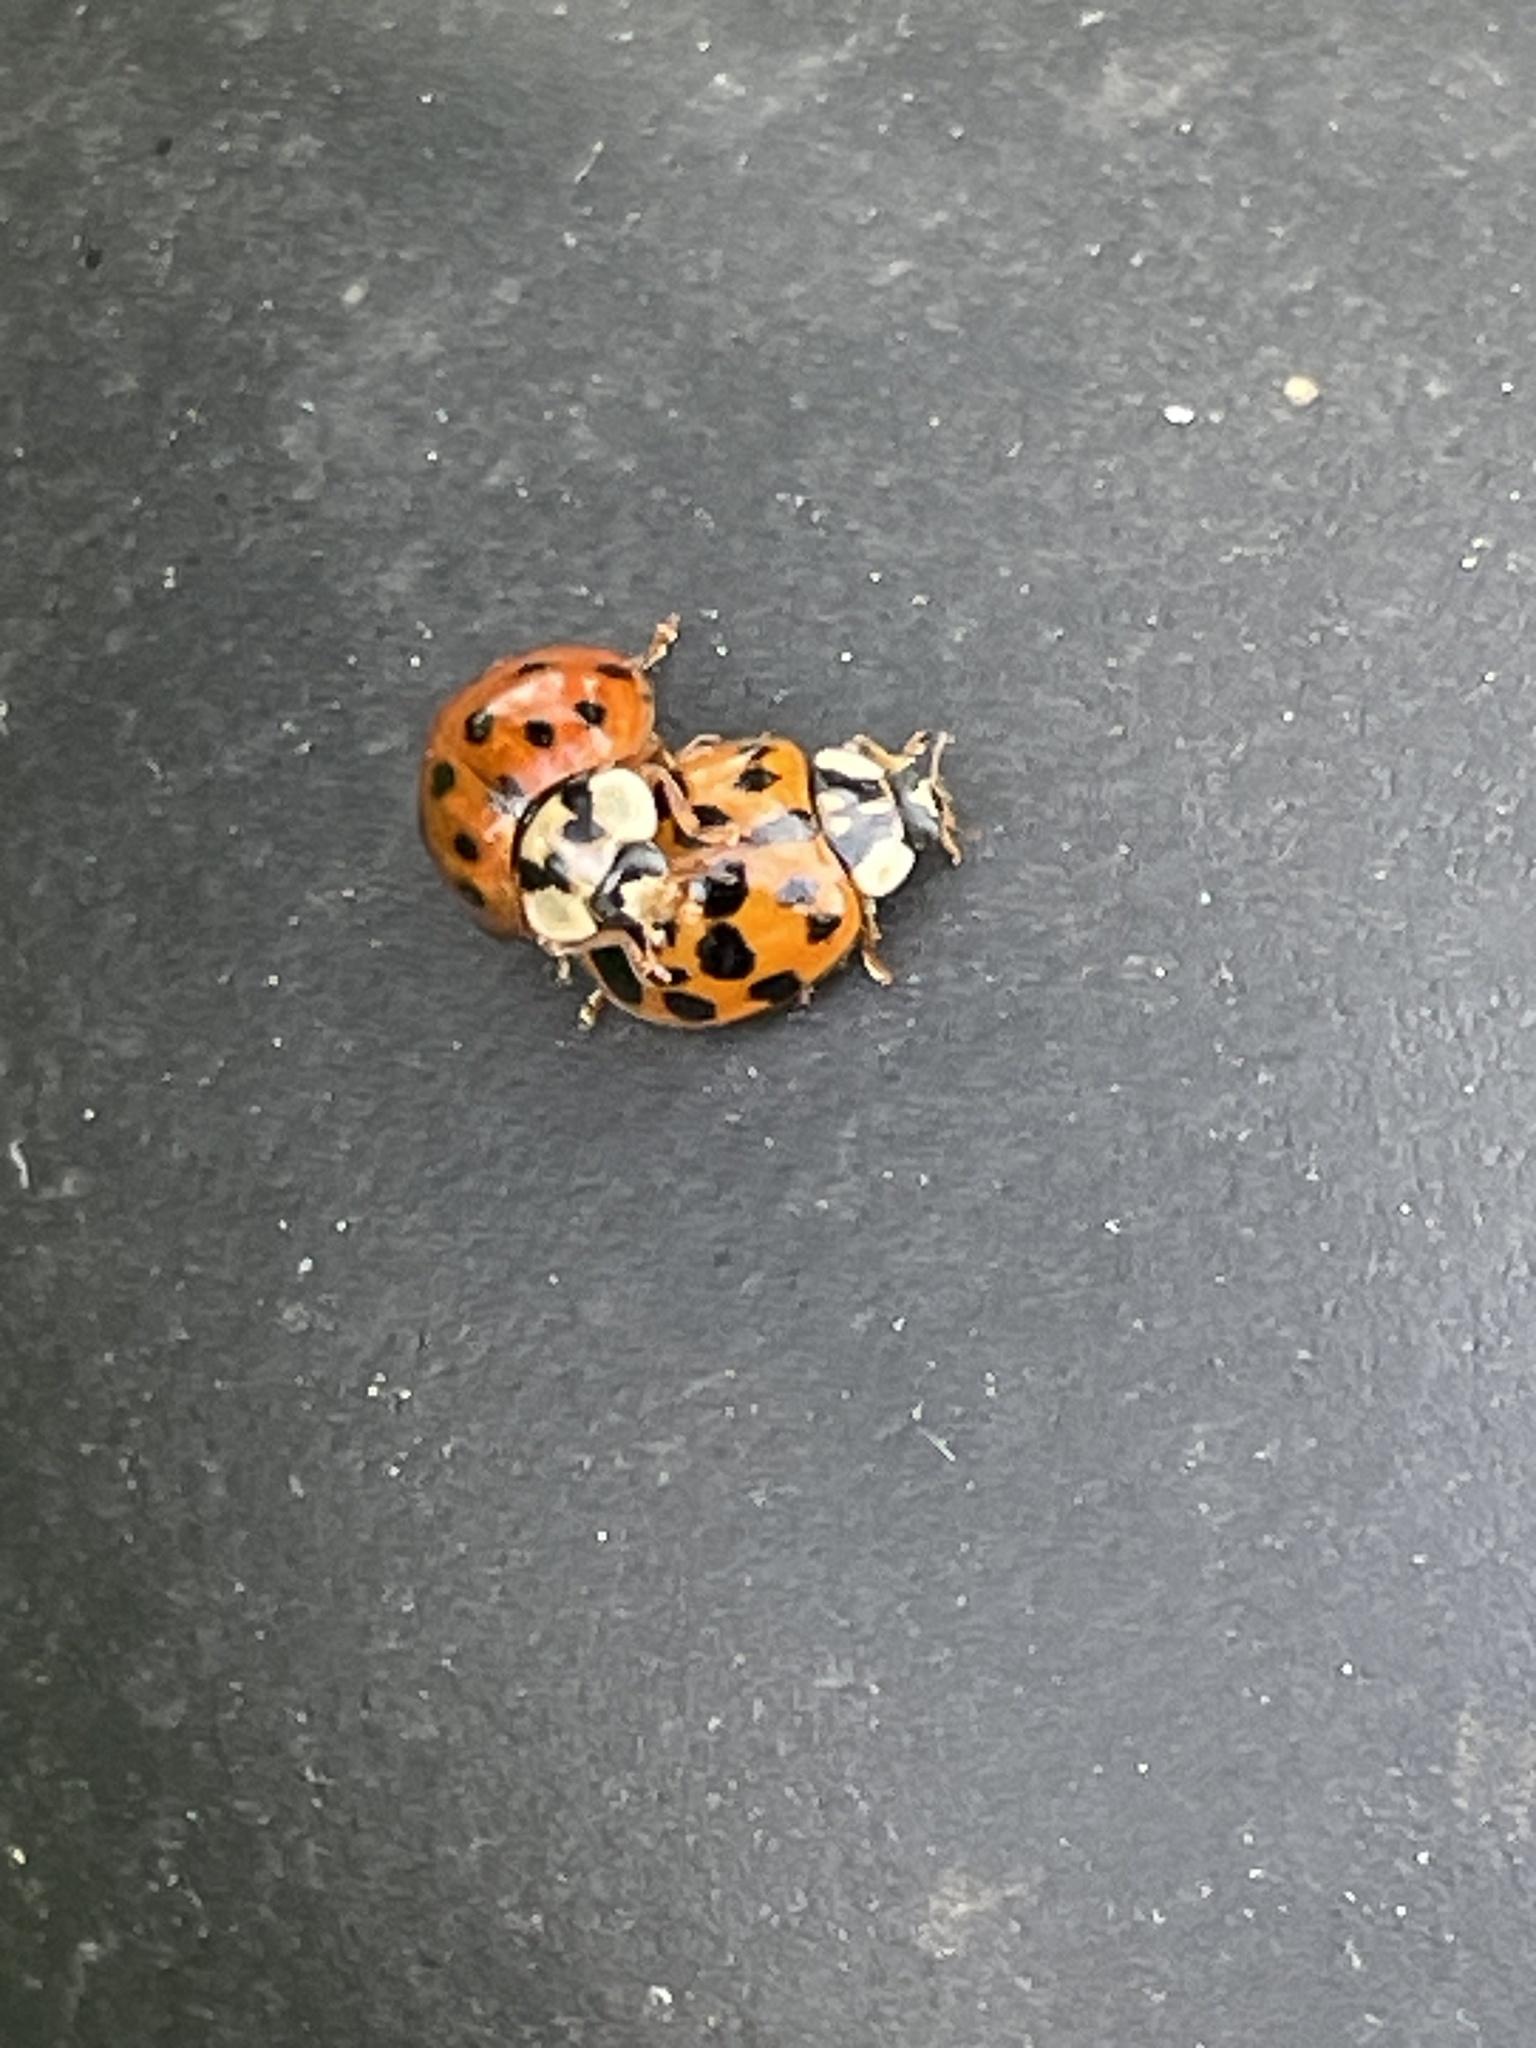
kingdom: Animalia
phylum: Arthropoda
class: Insecta
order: Coleoptera
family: Coccinellidae
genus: Harmonia
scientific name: Harmonia axyridis
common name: Harlequin ladybird
